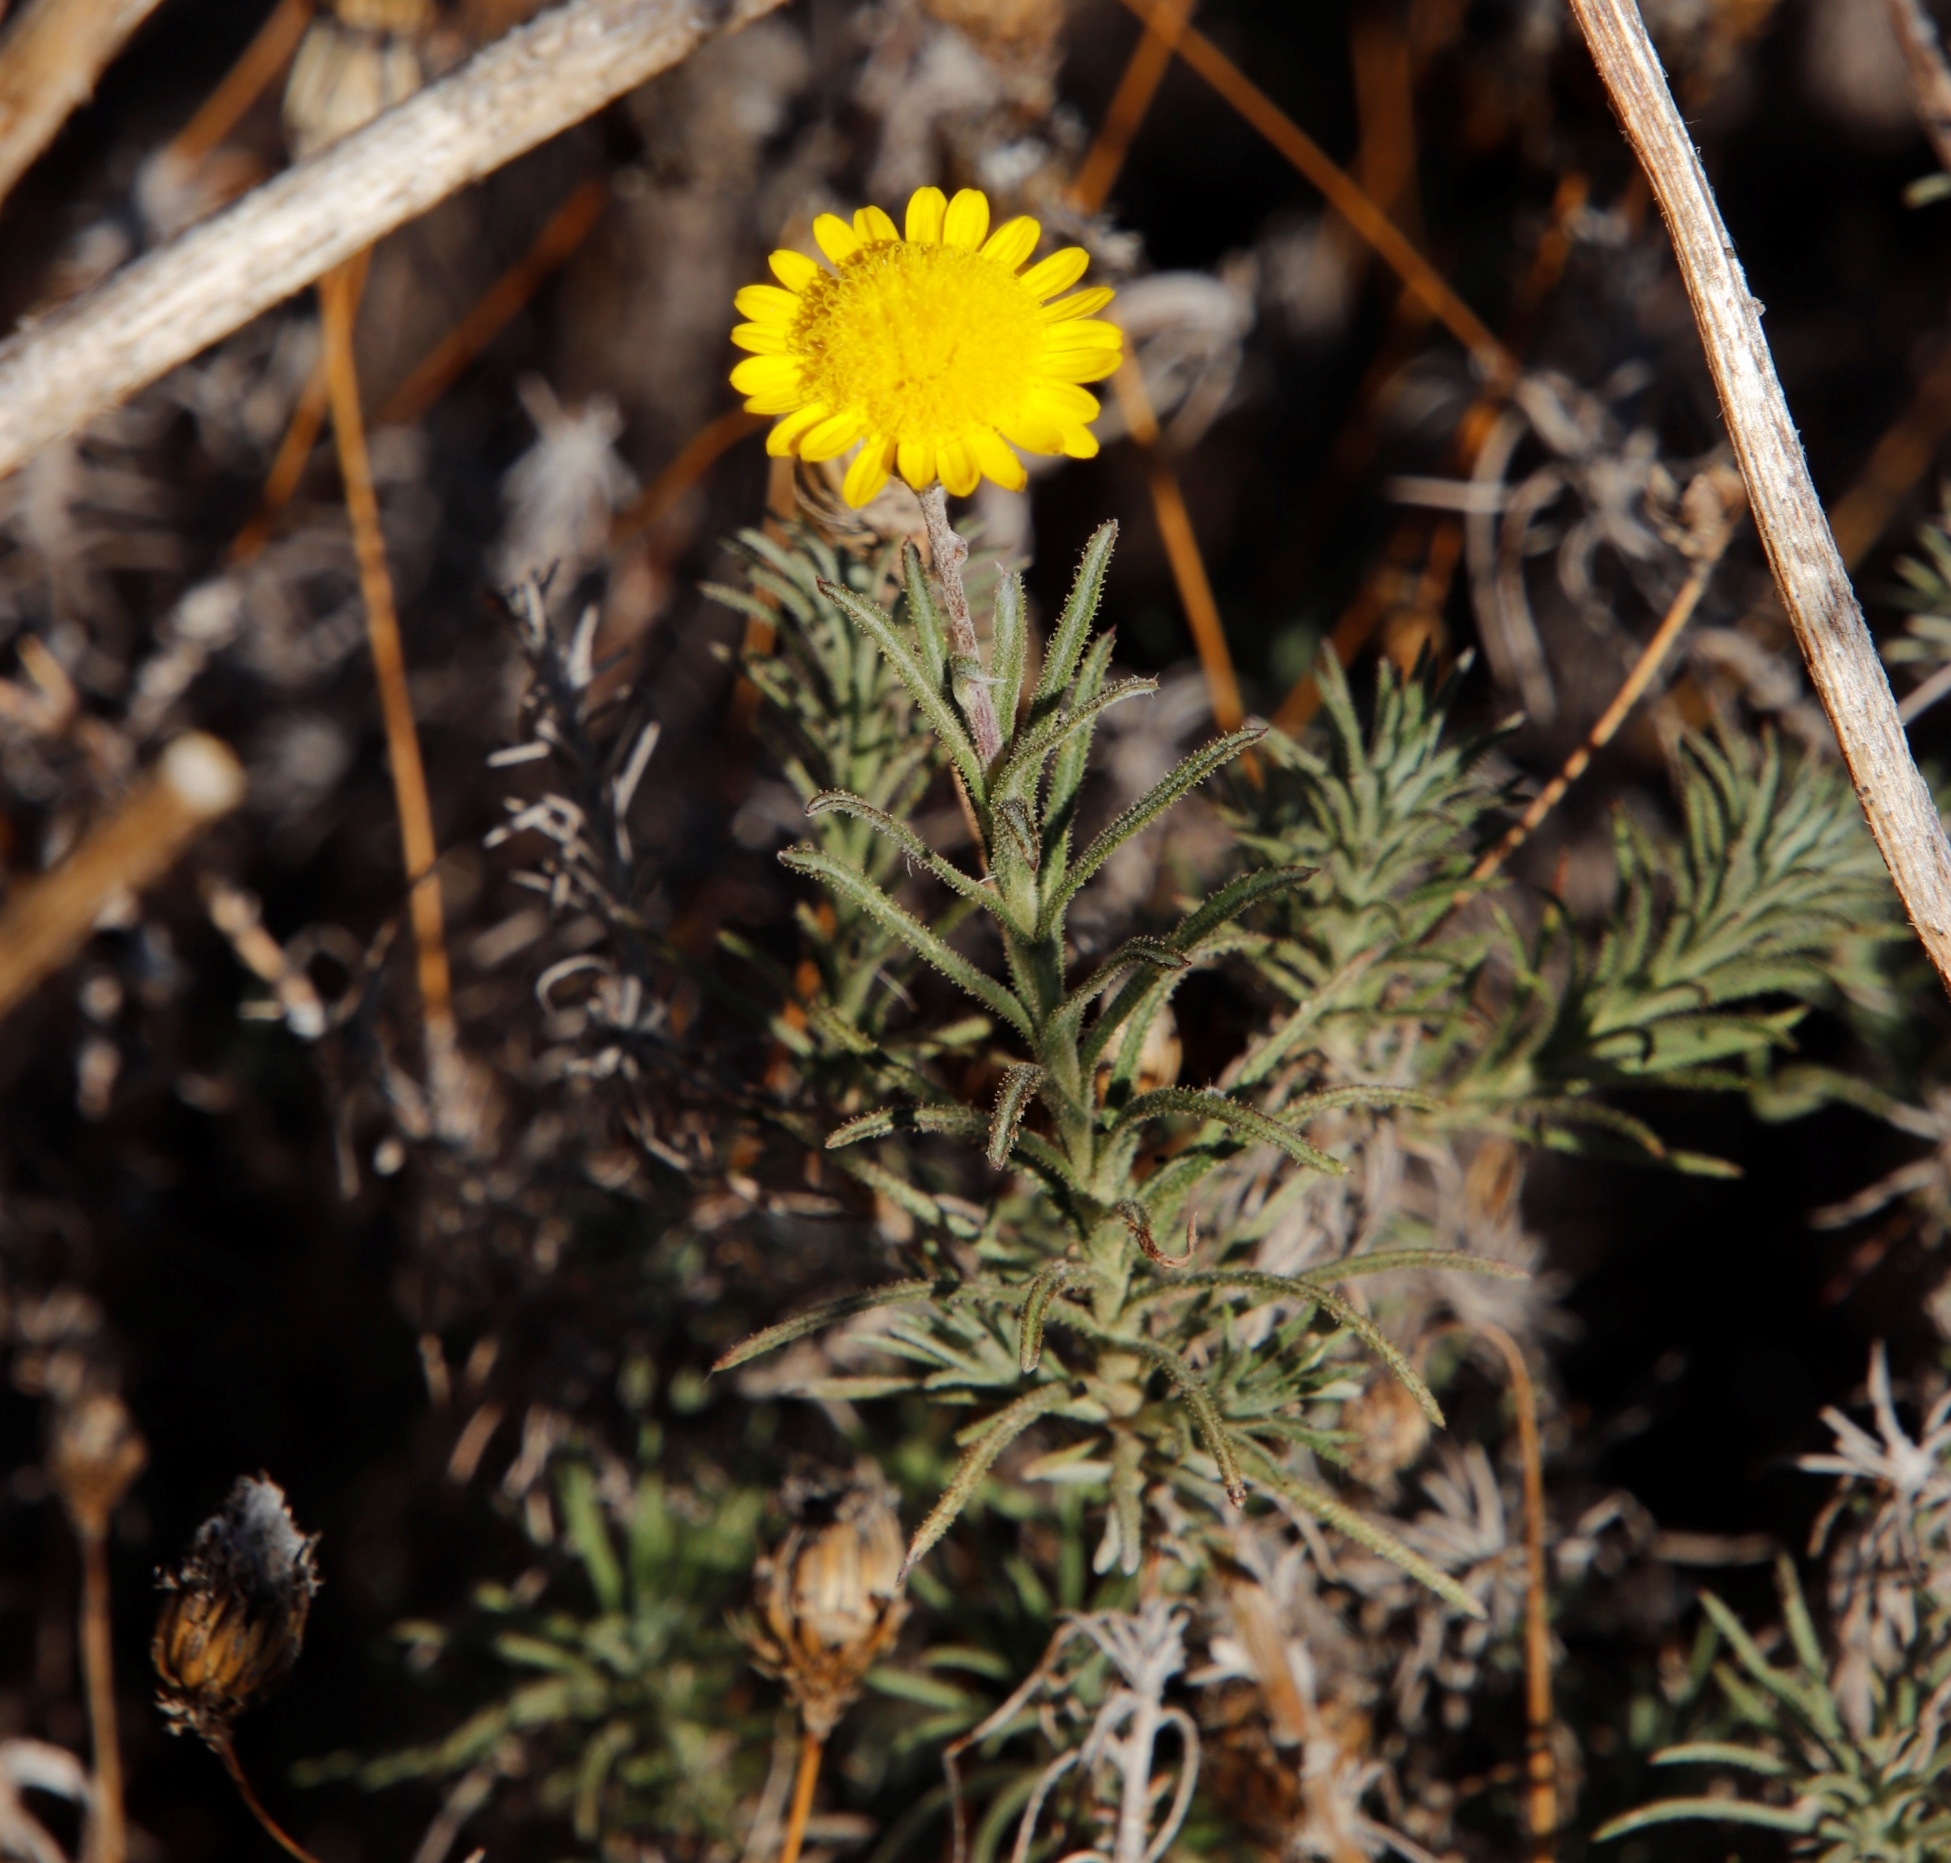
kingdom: Plantae
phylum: Tracheophyta
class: Magnoliopsida
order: Asterales
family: Asteraceae
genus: Leysera
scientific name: Leysera gnaphalodes
